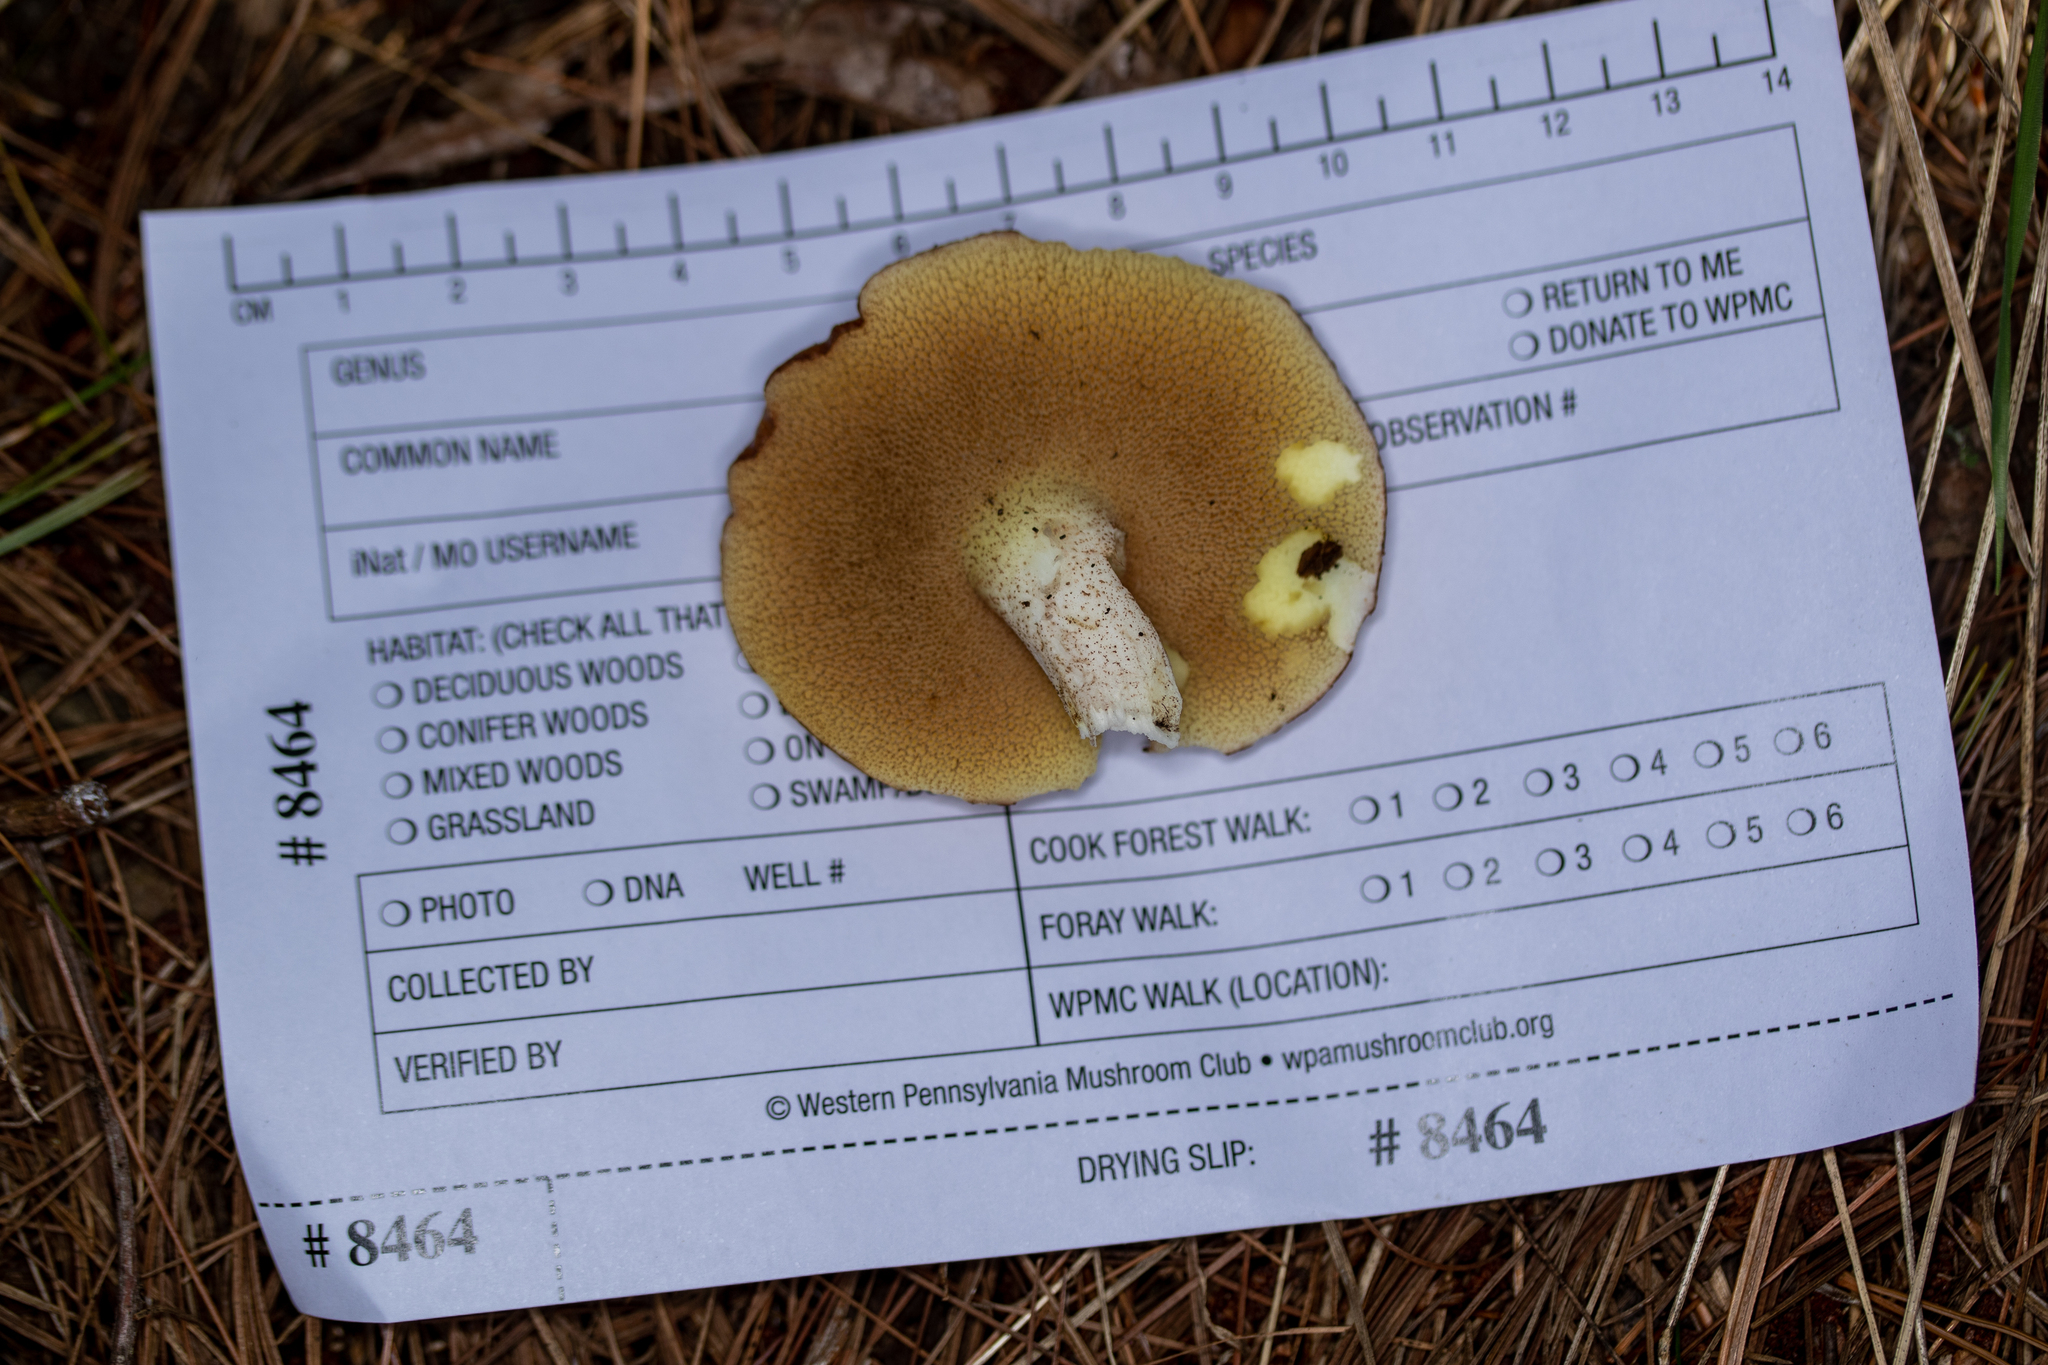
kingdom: Fungi
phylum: Basidiomycota
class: Agaricomycetes
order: Boletales
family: Suillaceae
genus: Fuscoboletinus
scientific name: Fuscoboletinus weaverae
